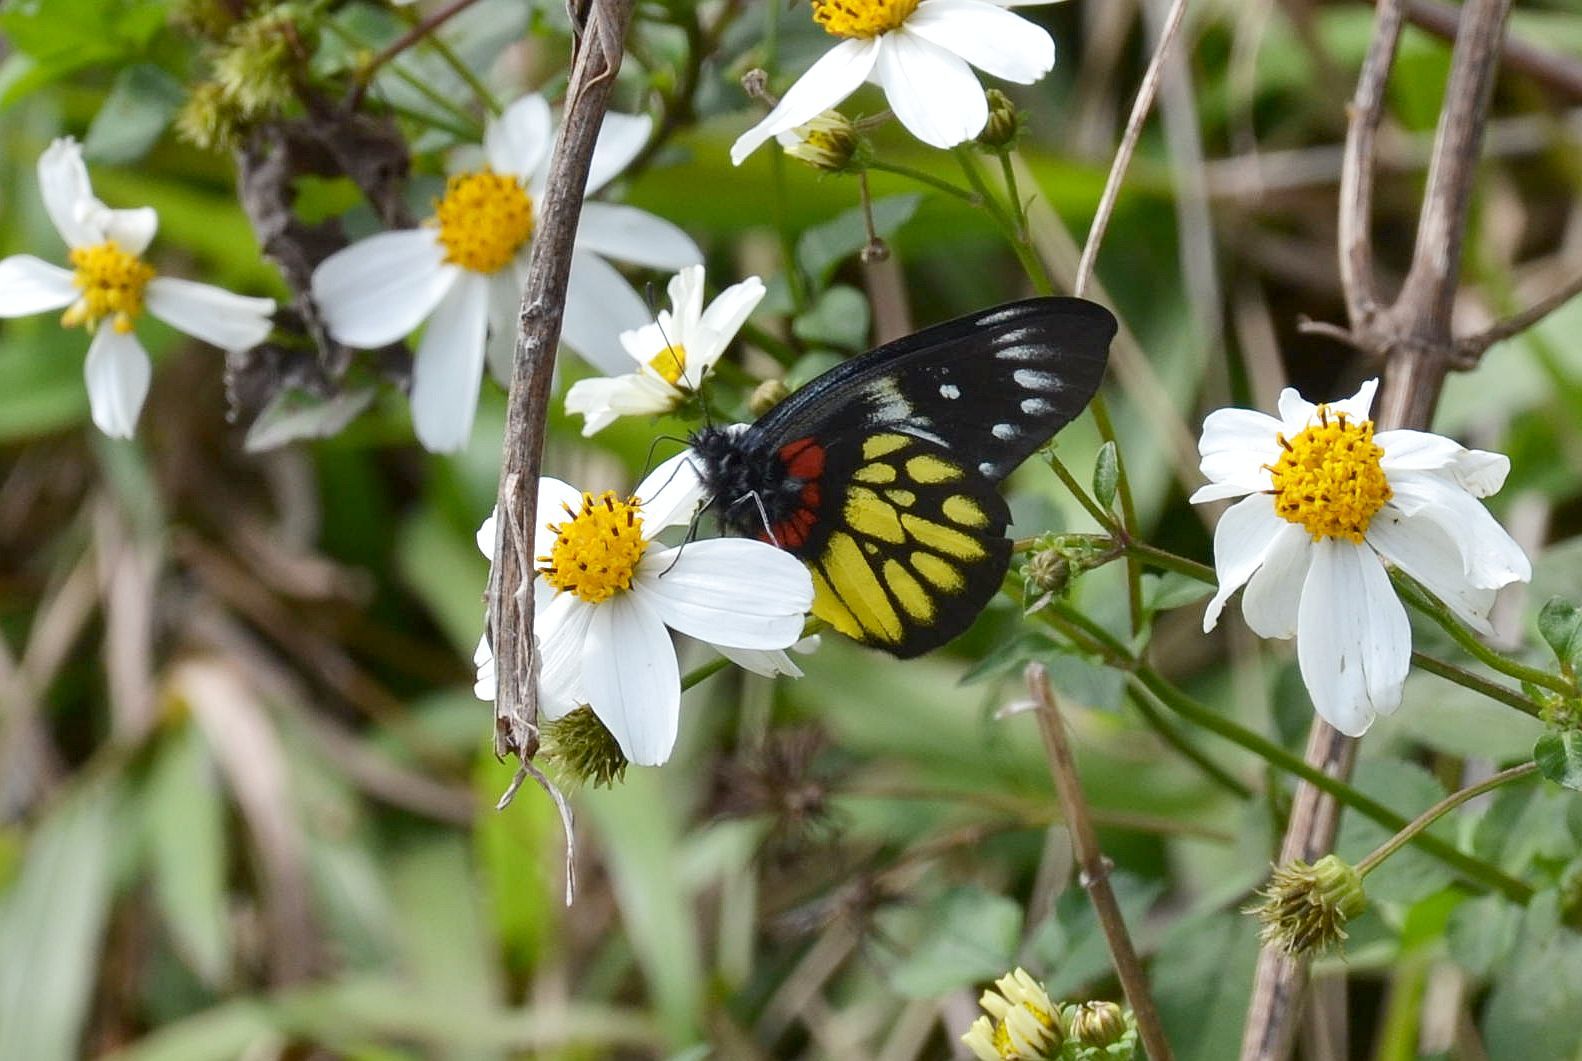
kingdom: Animalia
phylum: Arthropoda
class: Insecta
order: Lepidoptera
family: Pieridae
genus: Delias
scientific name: Delias pasithoe
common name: Red-base jezebel
